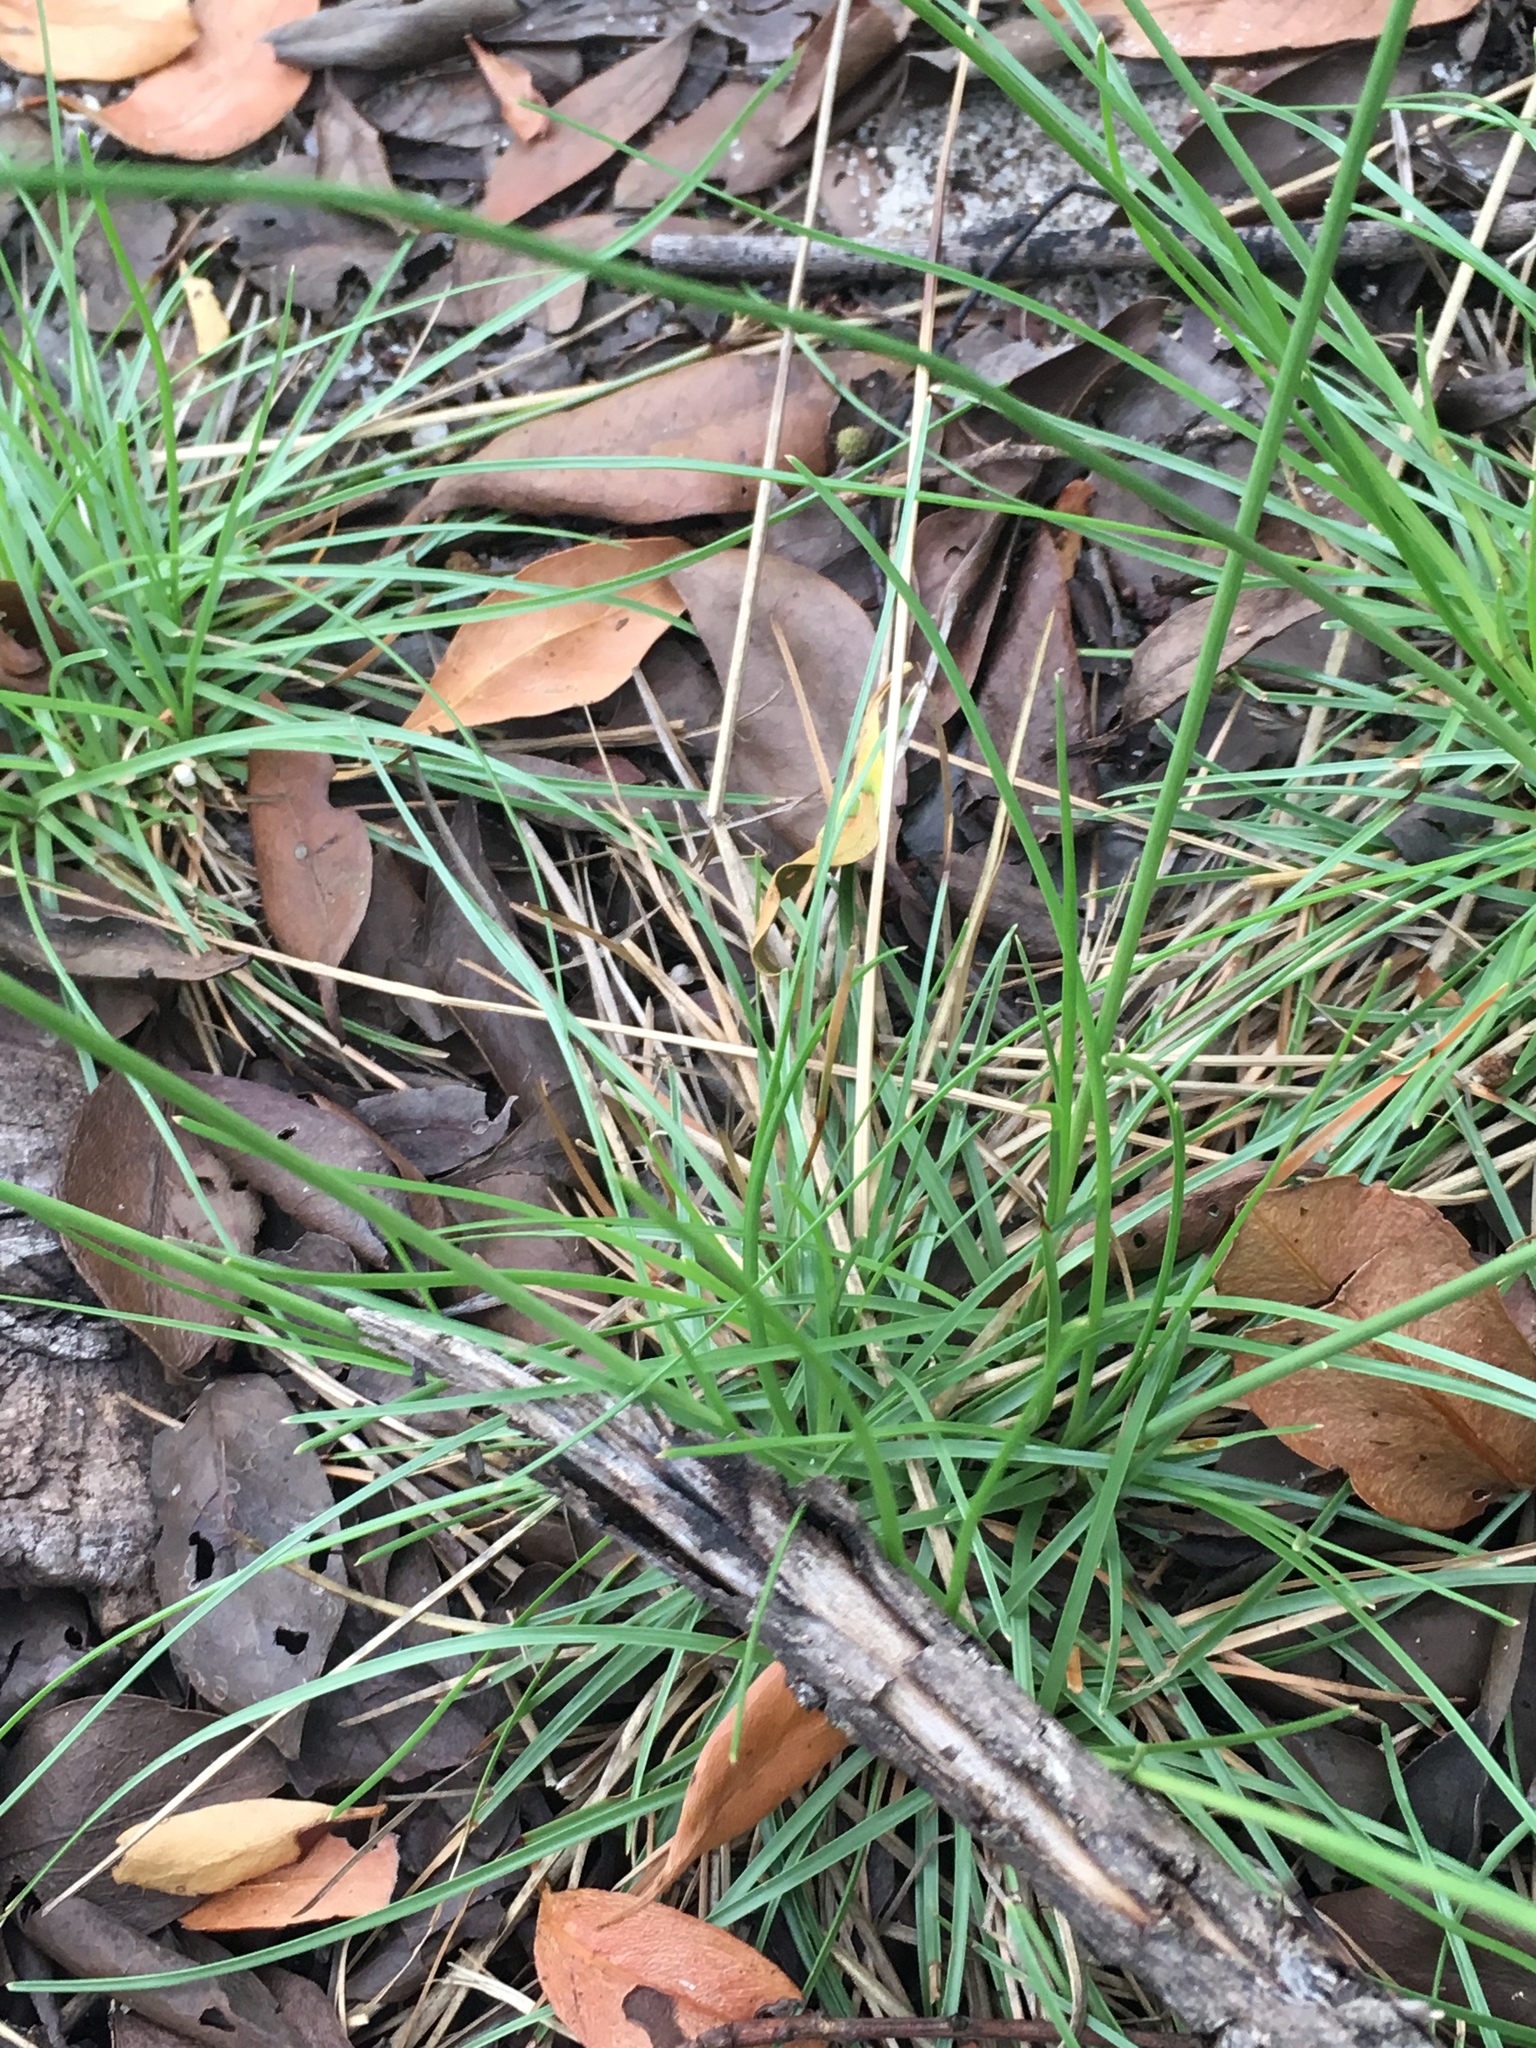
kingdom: Plantae
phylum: Tracheophyta
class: Liliopsida
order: Poales
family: Cyperaceae
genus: Fimbristylis
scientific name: Fimbristylis cymosa
